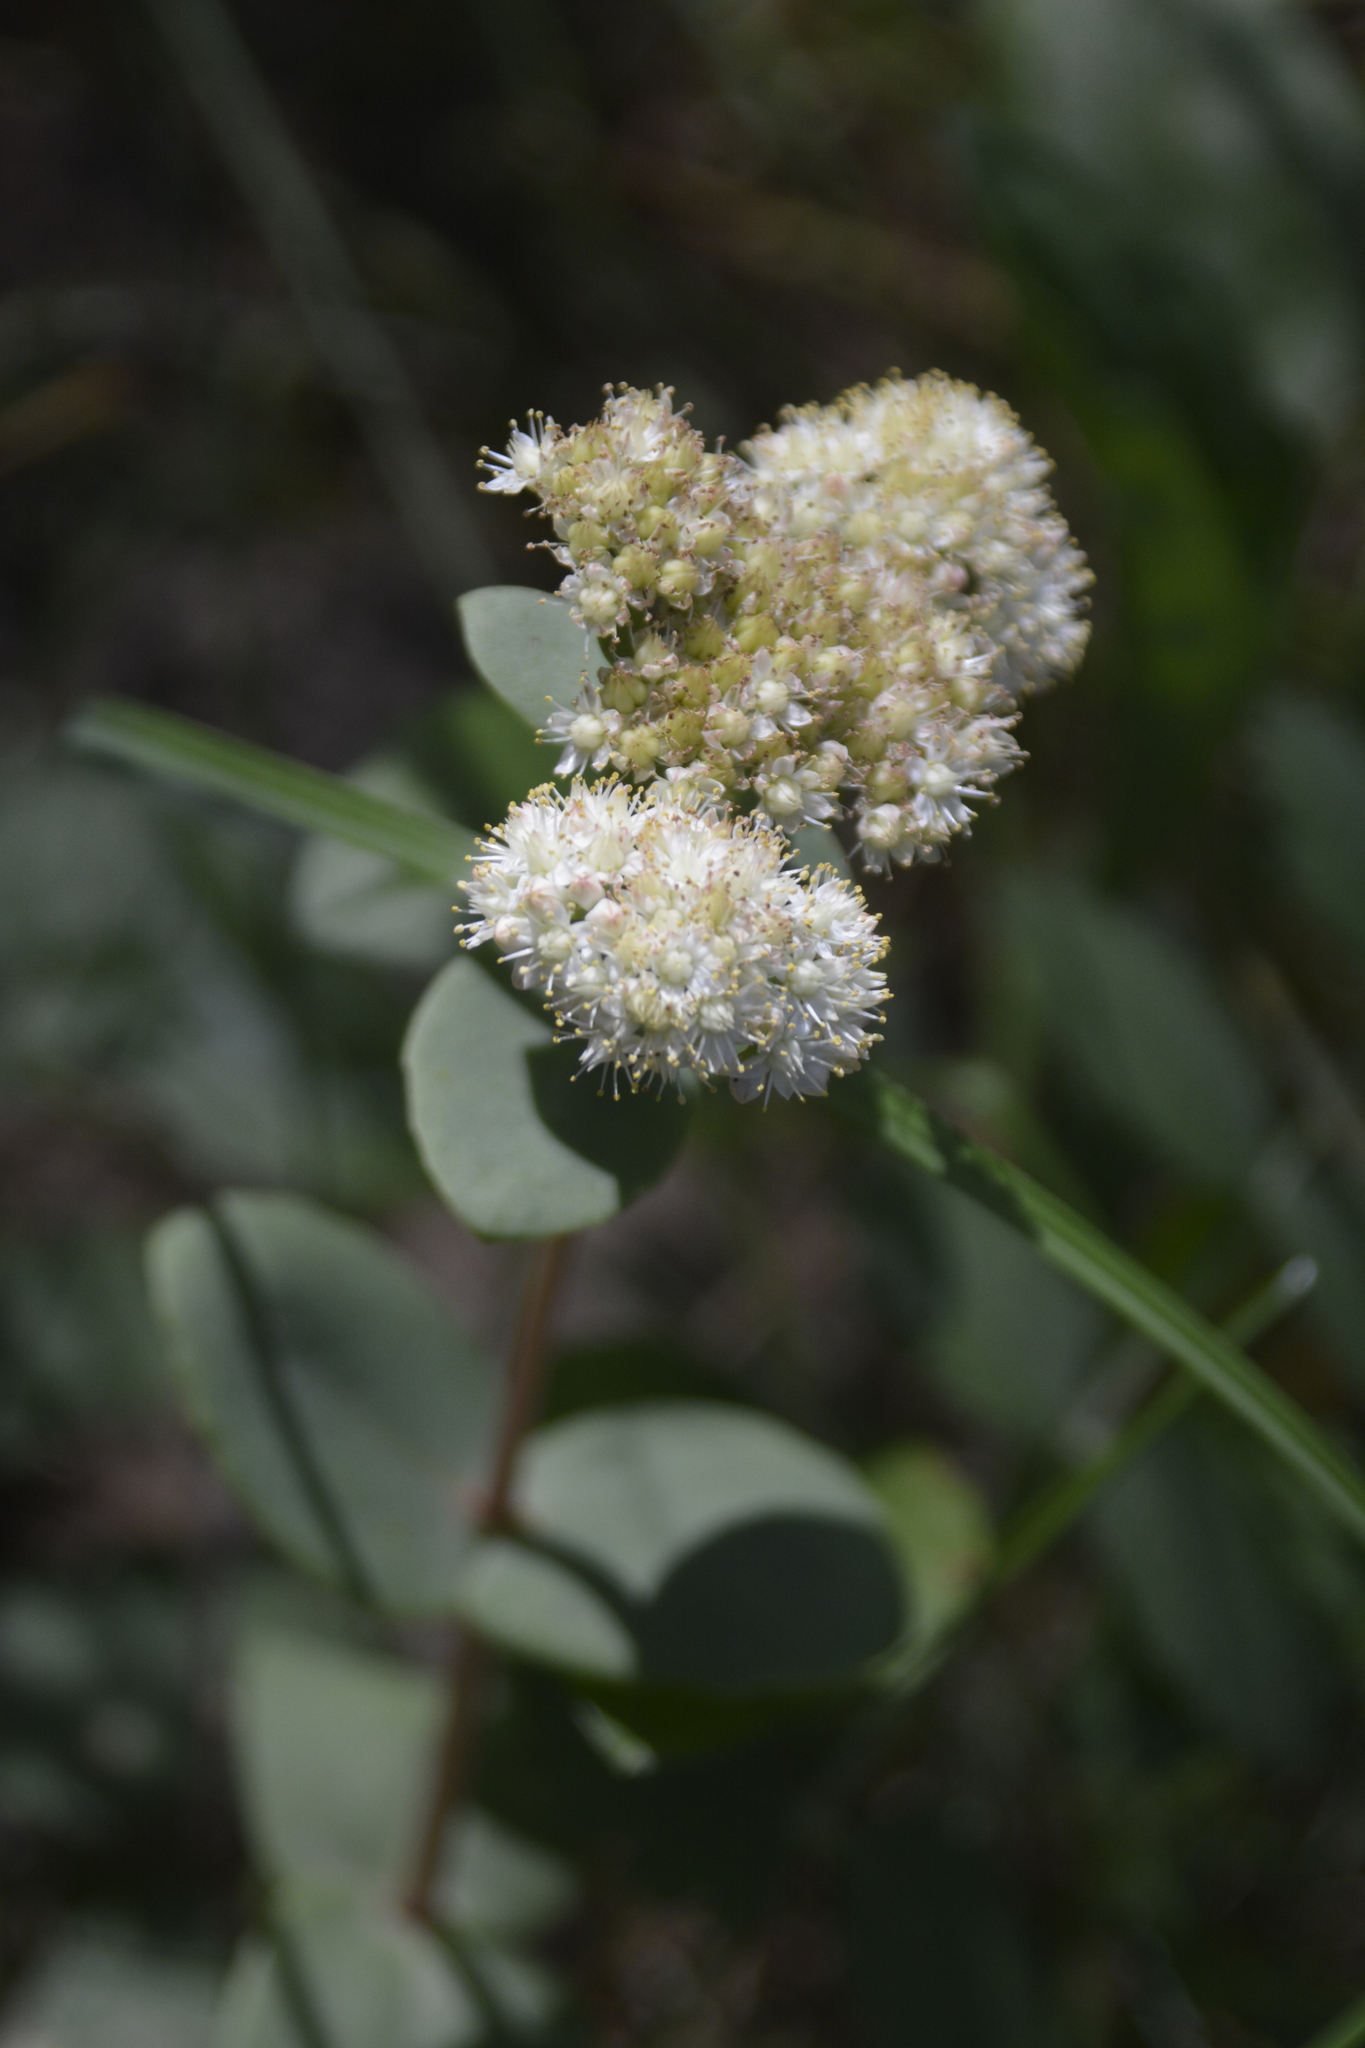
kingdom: Plantae
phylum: Tracheophyta
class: Magnoliopsida
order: Saxifragales
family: Crassulaceae
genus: Hylotelephium
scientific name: Hylotelephium maximum
